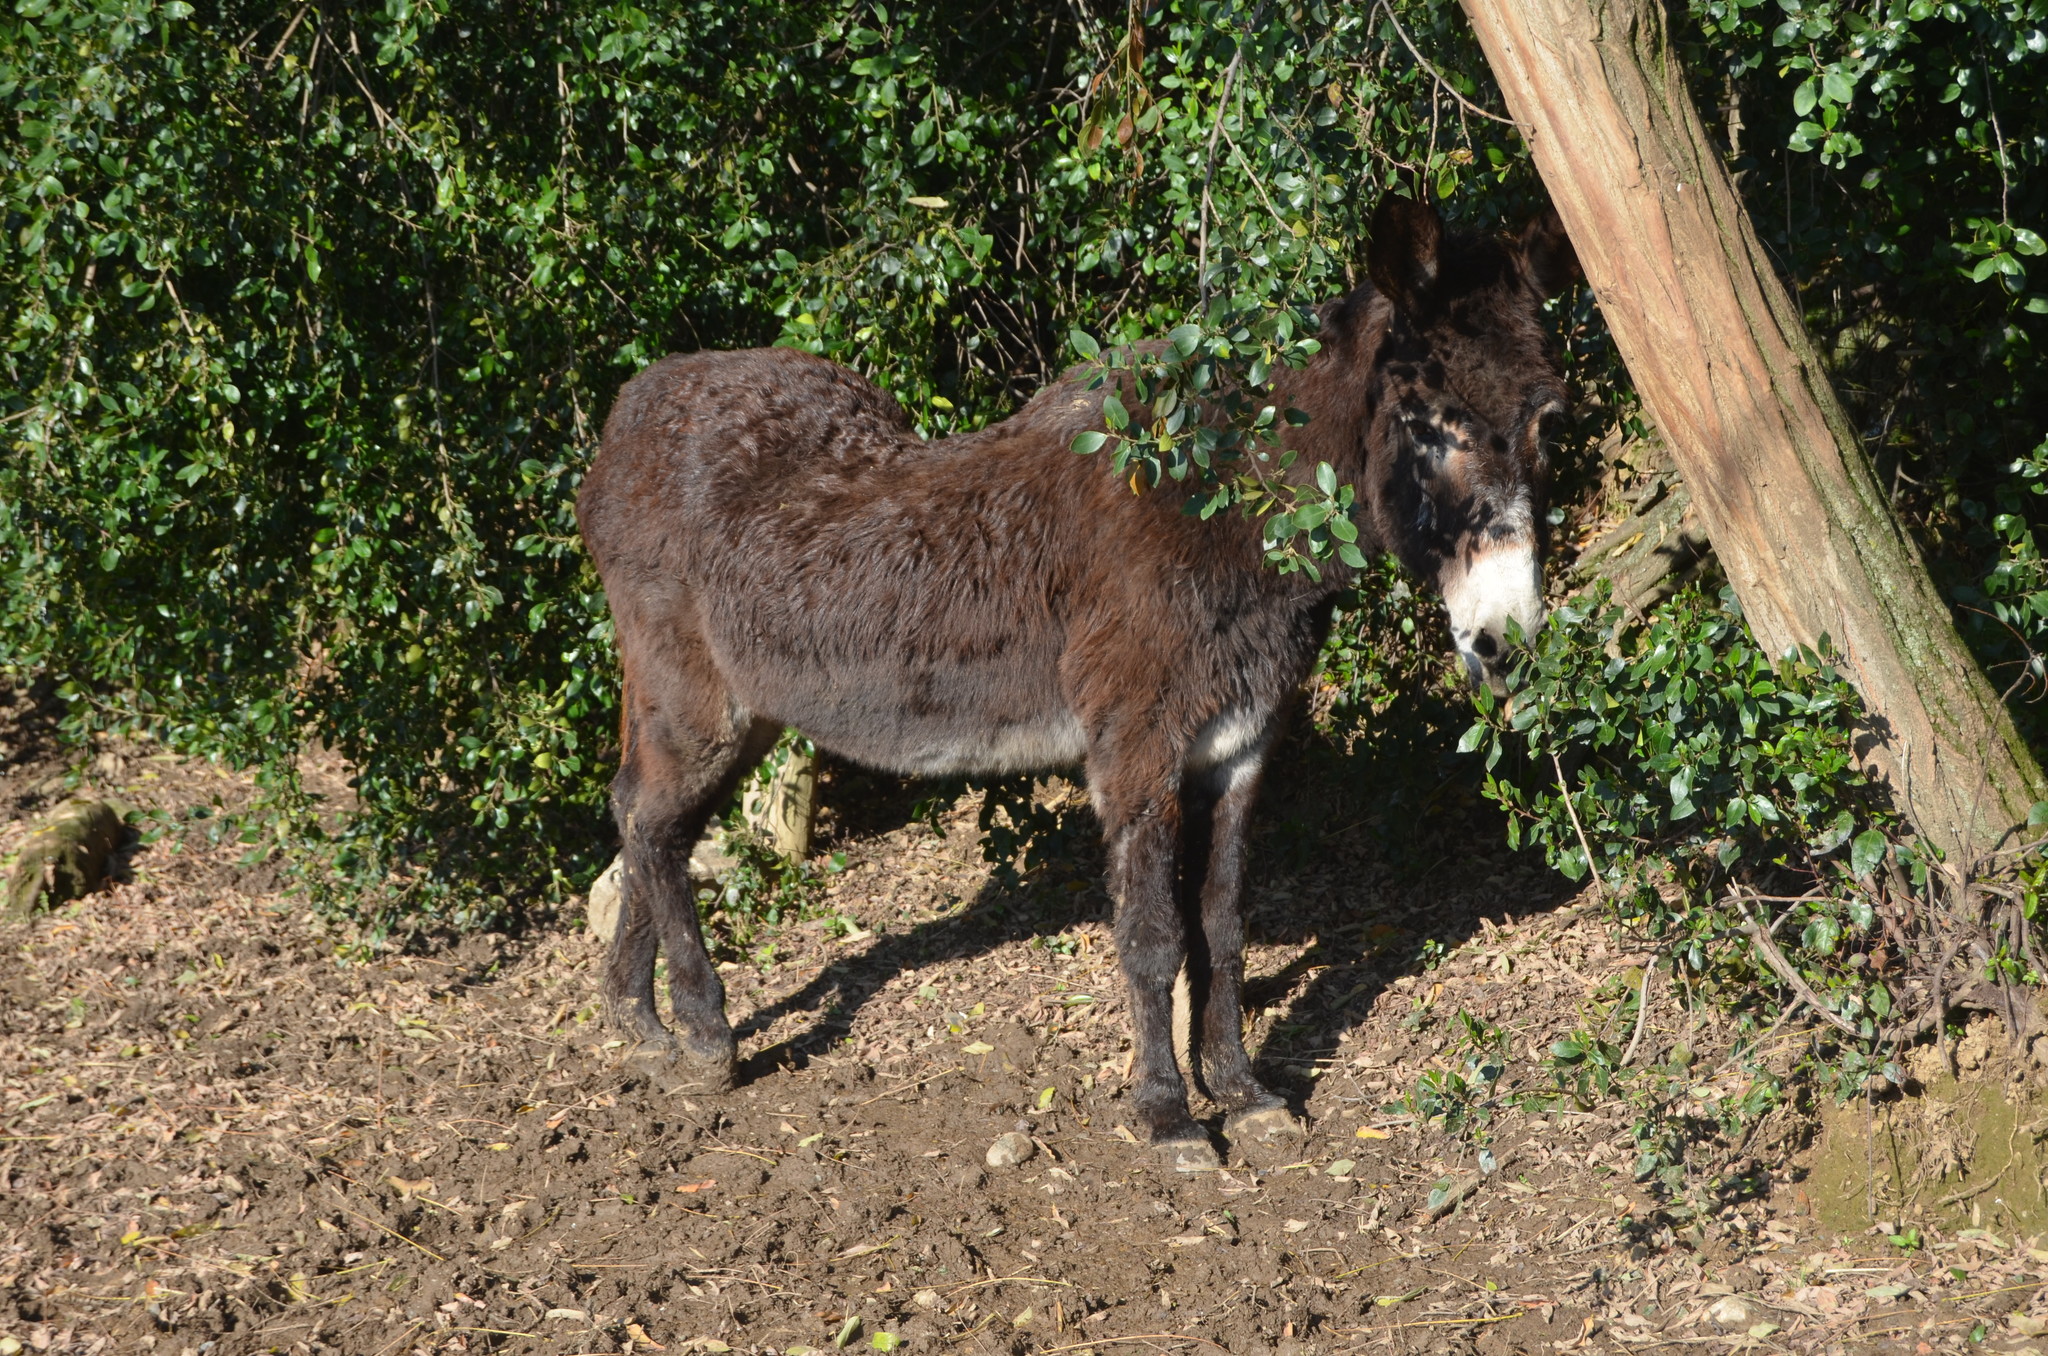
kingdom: Animalia
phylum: Chordata
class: Mammalia
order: Perissodactyla
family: Equidae
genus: Equus
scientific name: Equus asinus
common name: Ass
